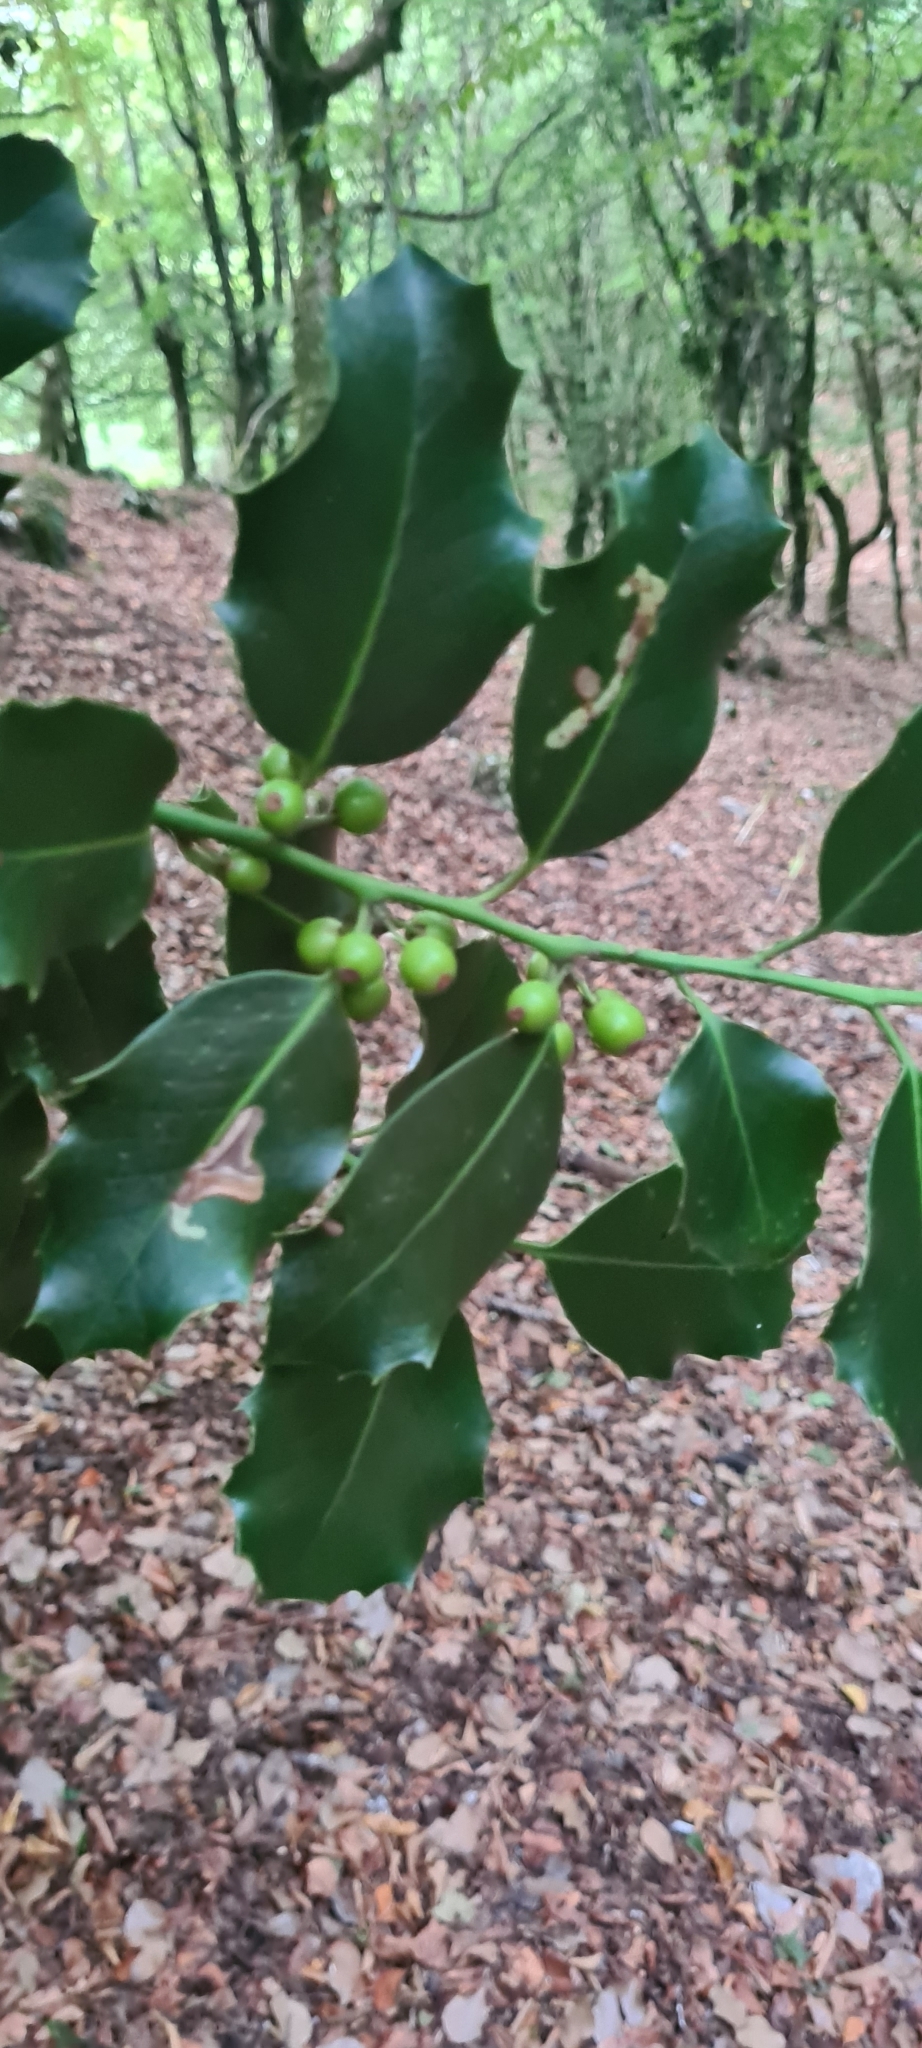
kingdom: Plantae
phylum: Tracheophyta
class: Magnoliopsida
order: Aquifoliales
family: Aquifoliaceae
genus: Ilex
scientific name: Ilex aquifolium
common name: English holly
